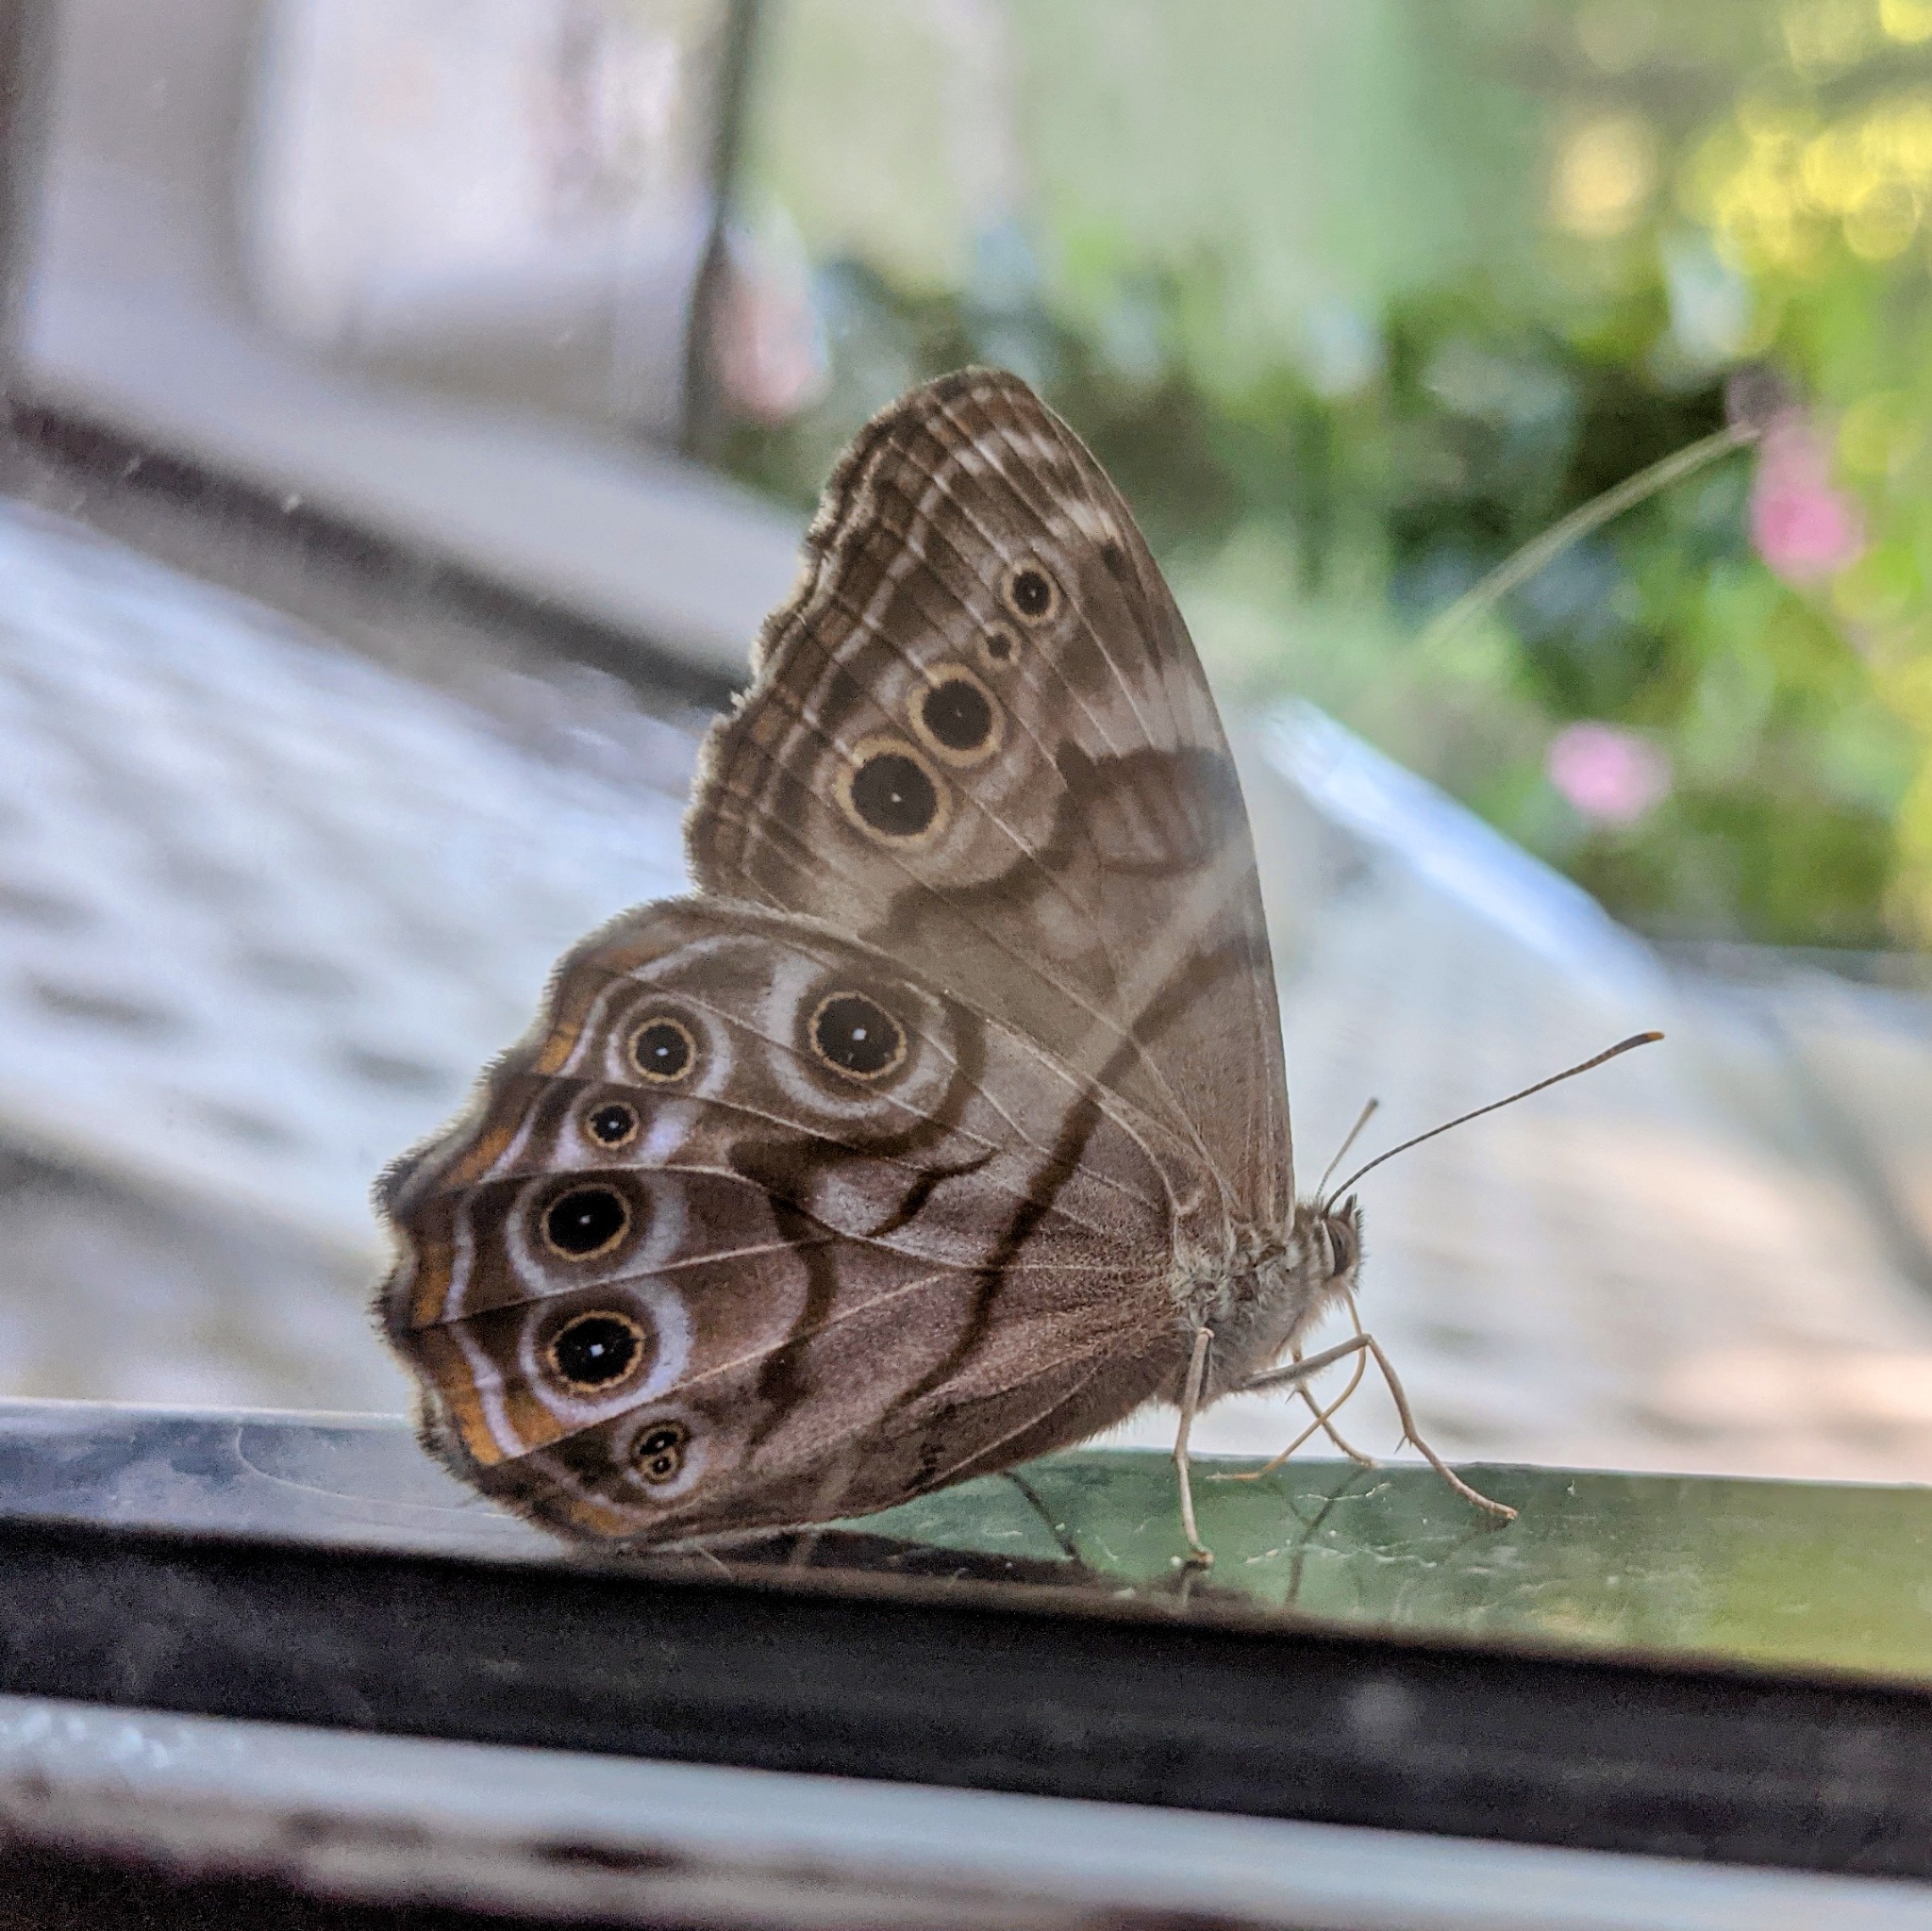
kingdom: Animalia
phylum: Arthropoda
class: Insecta
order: Lepidoptera
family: Nymphalidae
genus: Lethe
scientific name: Lethe anthedon
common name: Northern pearly-eye
